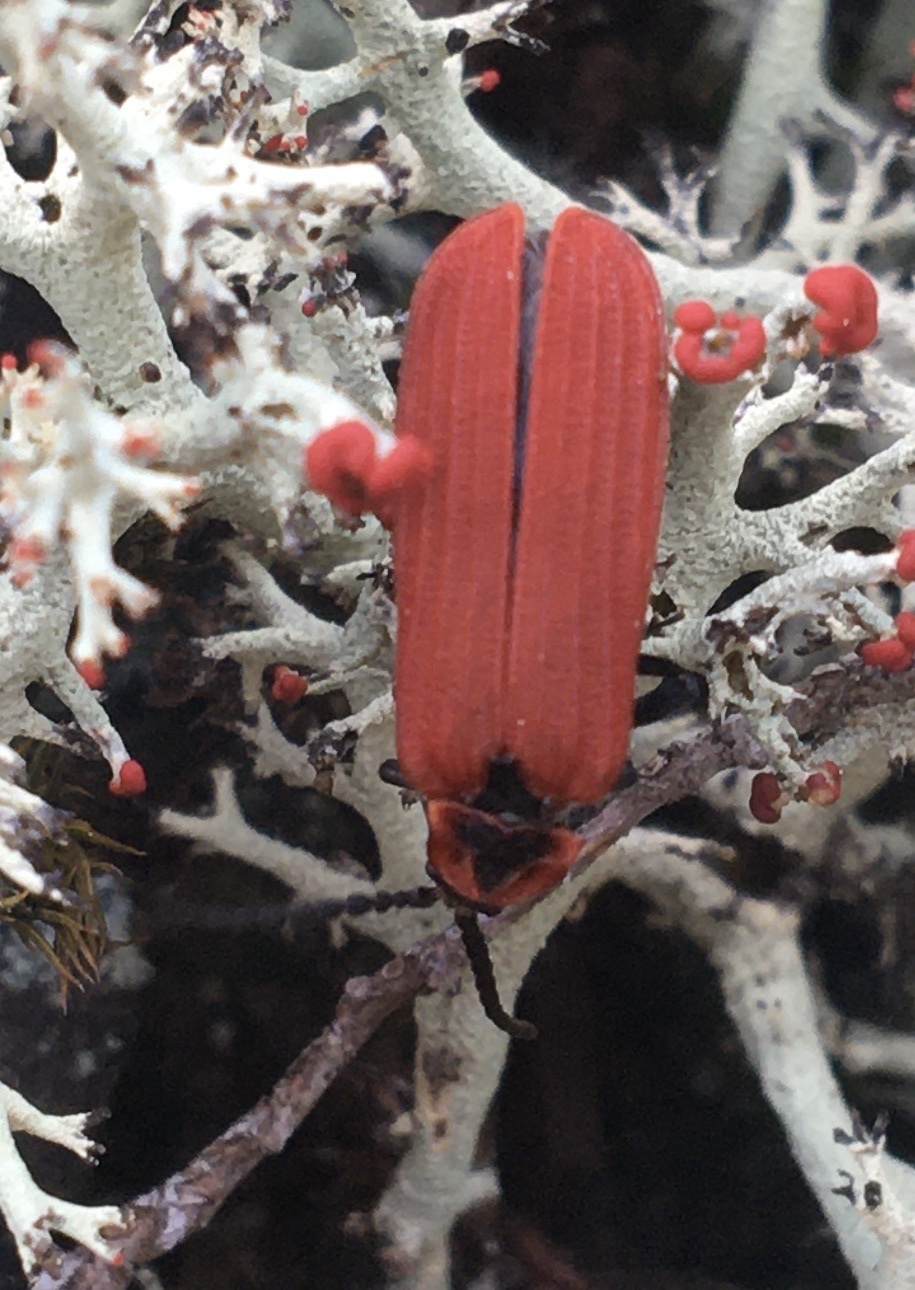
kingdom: Animalia
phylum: Arthropoda
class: Insecta
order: Coleoptera
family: Lycidae
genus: Dictyoptera
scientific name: Dictyoptera aurora
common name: Golden net-winged beetle
